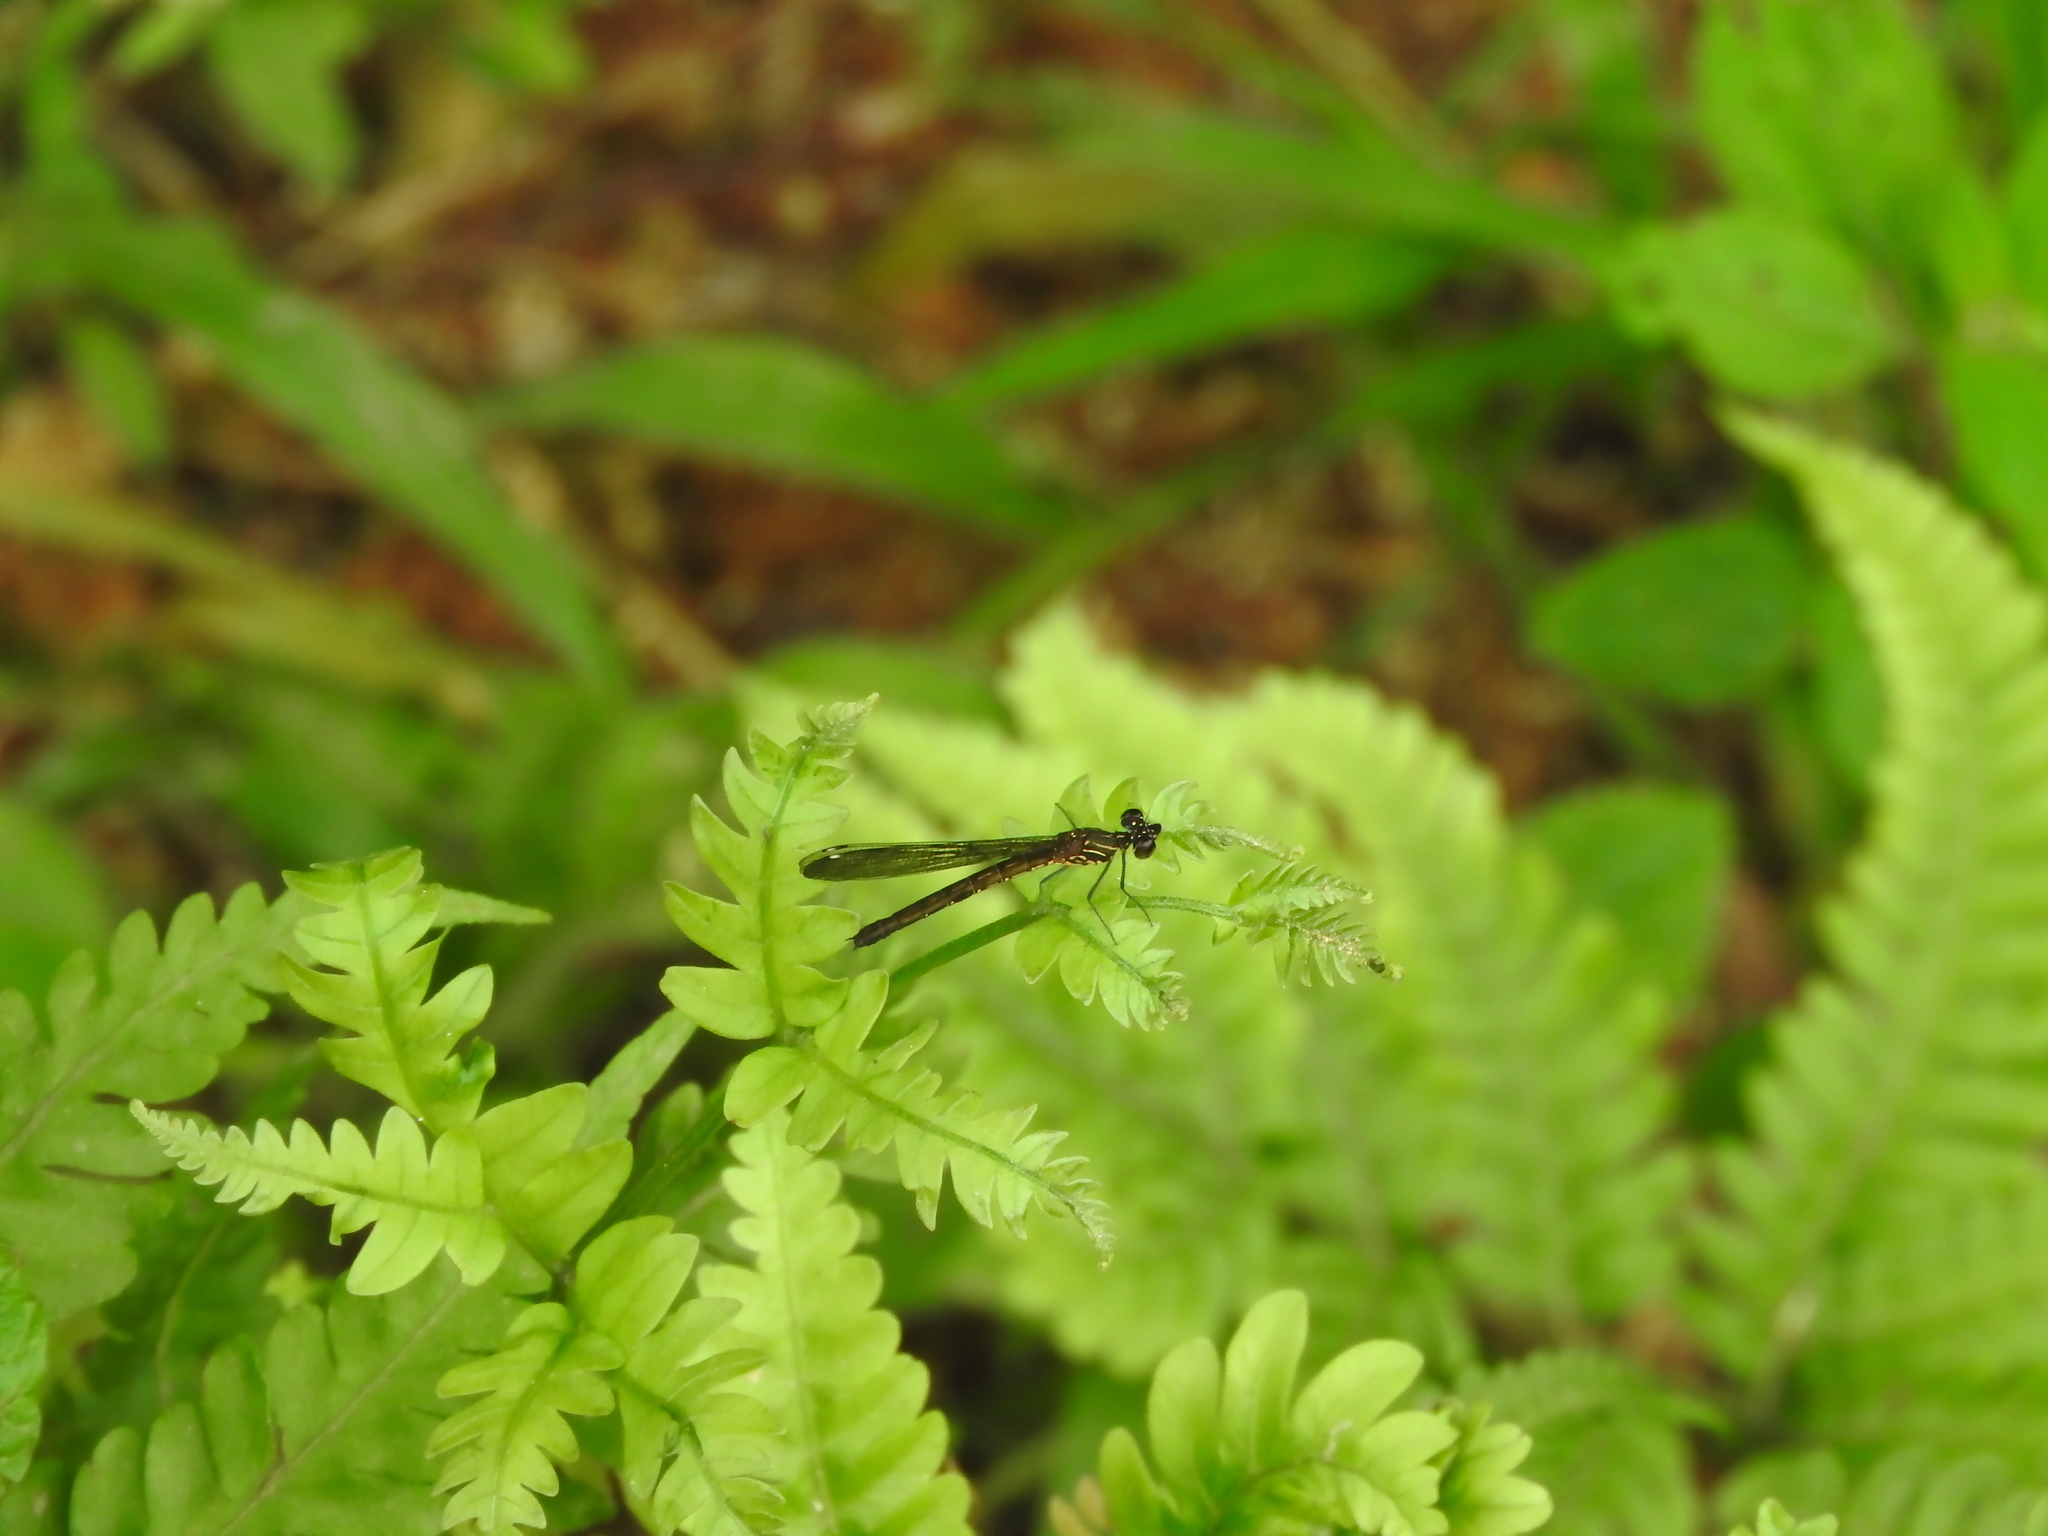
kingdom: Animalia
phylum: Arthropoda
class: Insecta
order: Odonata
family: Chlorocyphidae
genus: Heliocypha
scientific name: Heliocypha bisignata
